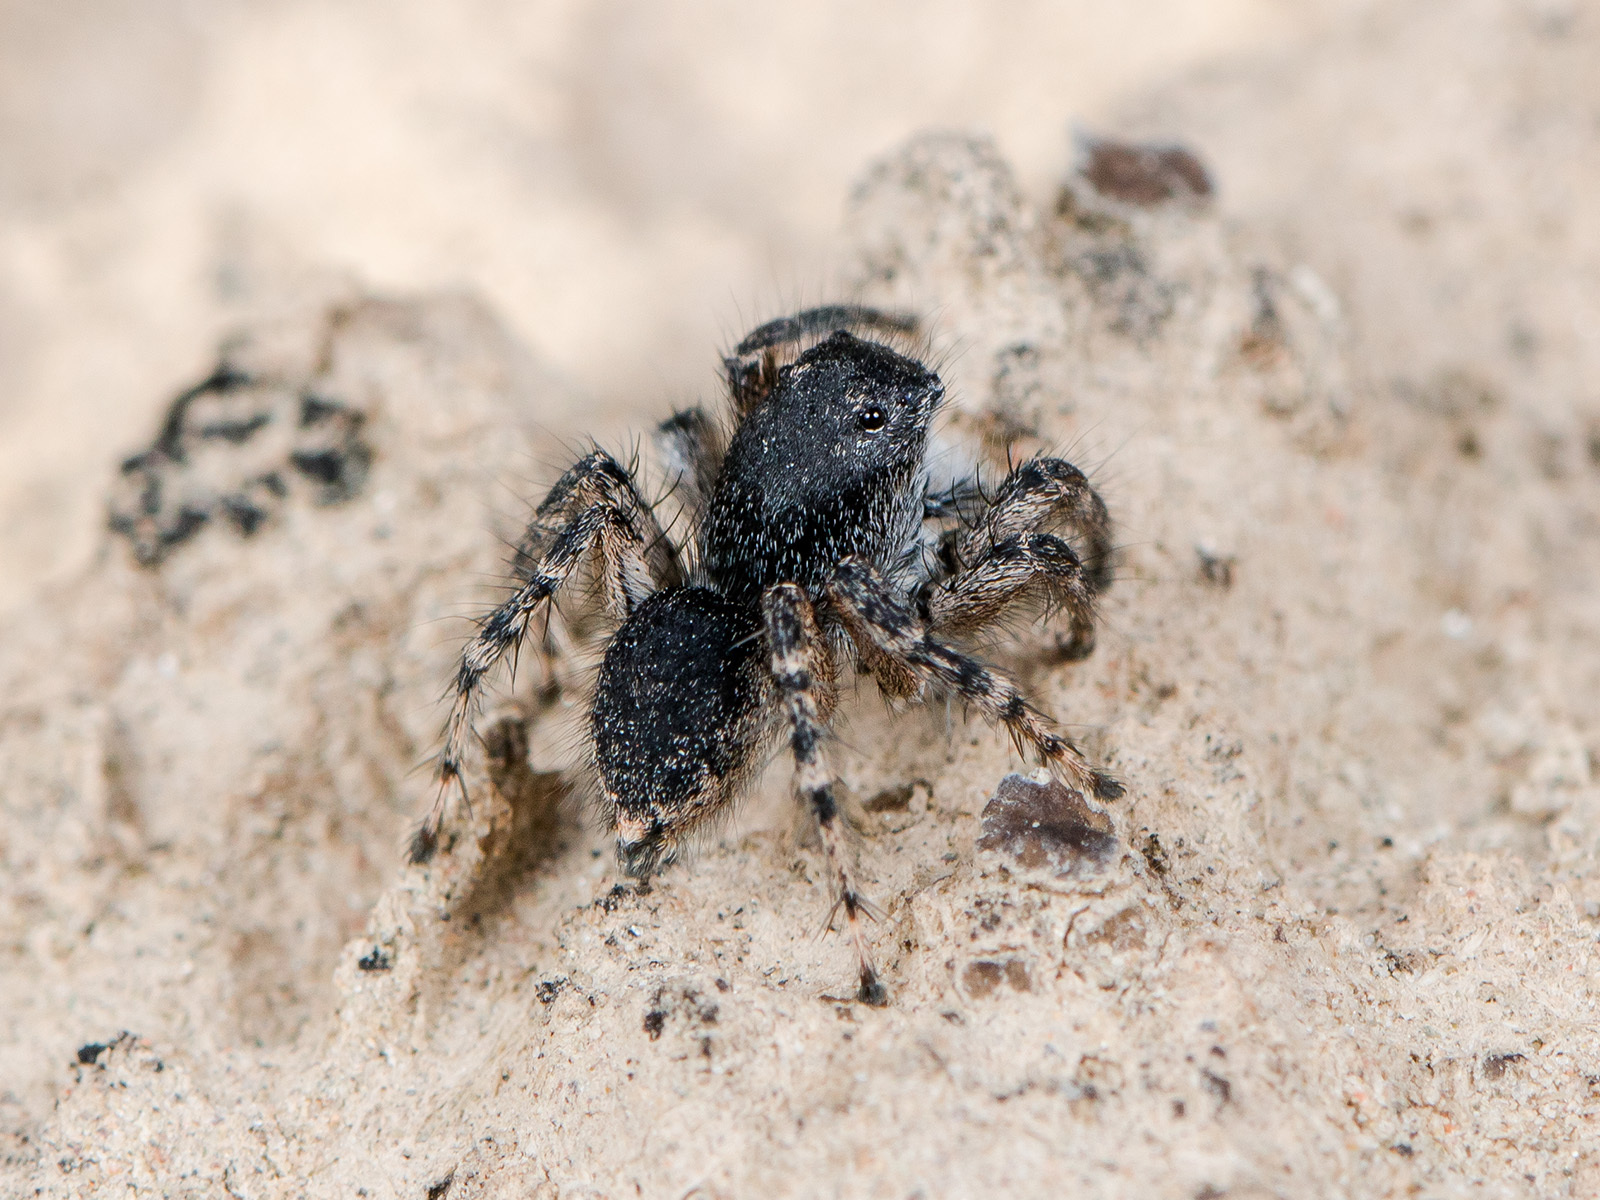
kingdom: Animalia
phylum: Arthropoda
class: Arachnida
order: Araneae
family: Salticidae
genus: Aelurillus
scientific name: Aelurillus dubatolovi
